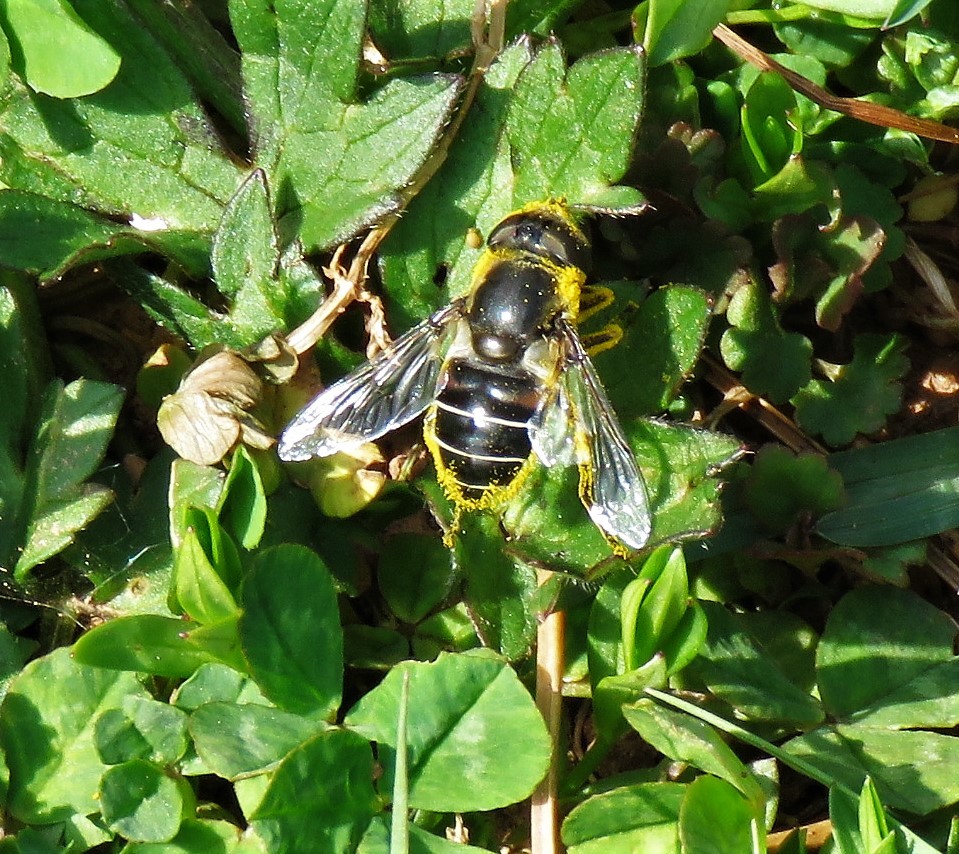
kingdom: Animalia
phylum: Arthropoda
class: Insecta
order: Diptera
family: Syrphidae
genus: Eristalis
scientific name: Eristalis dimidiata
